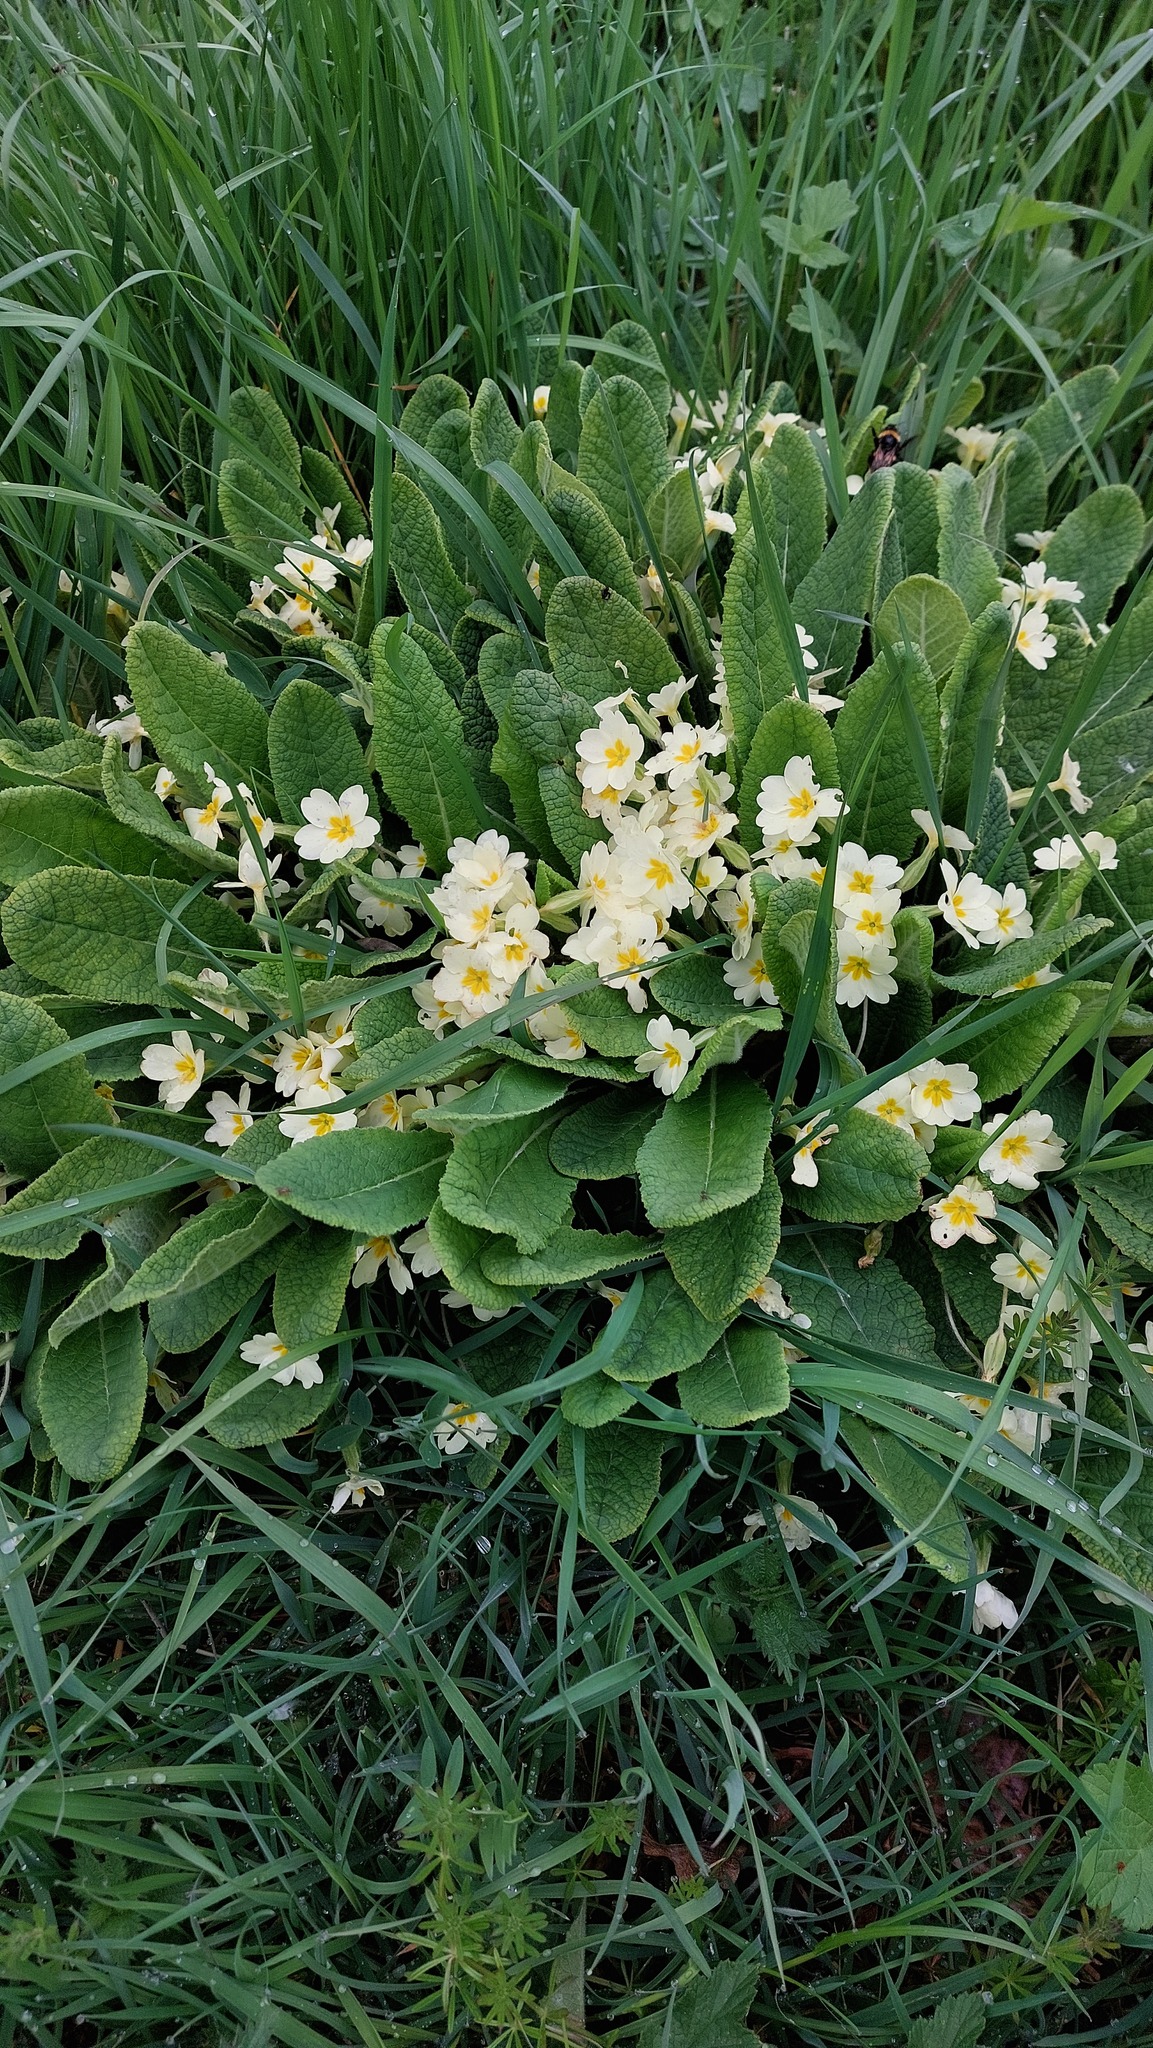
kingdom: Plantae
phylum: Tracheophyta
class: Magnoliopsida
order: Ericales
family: Primulaceae
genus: Primula
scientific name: Primula vulgaris
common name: Primrose
